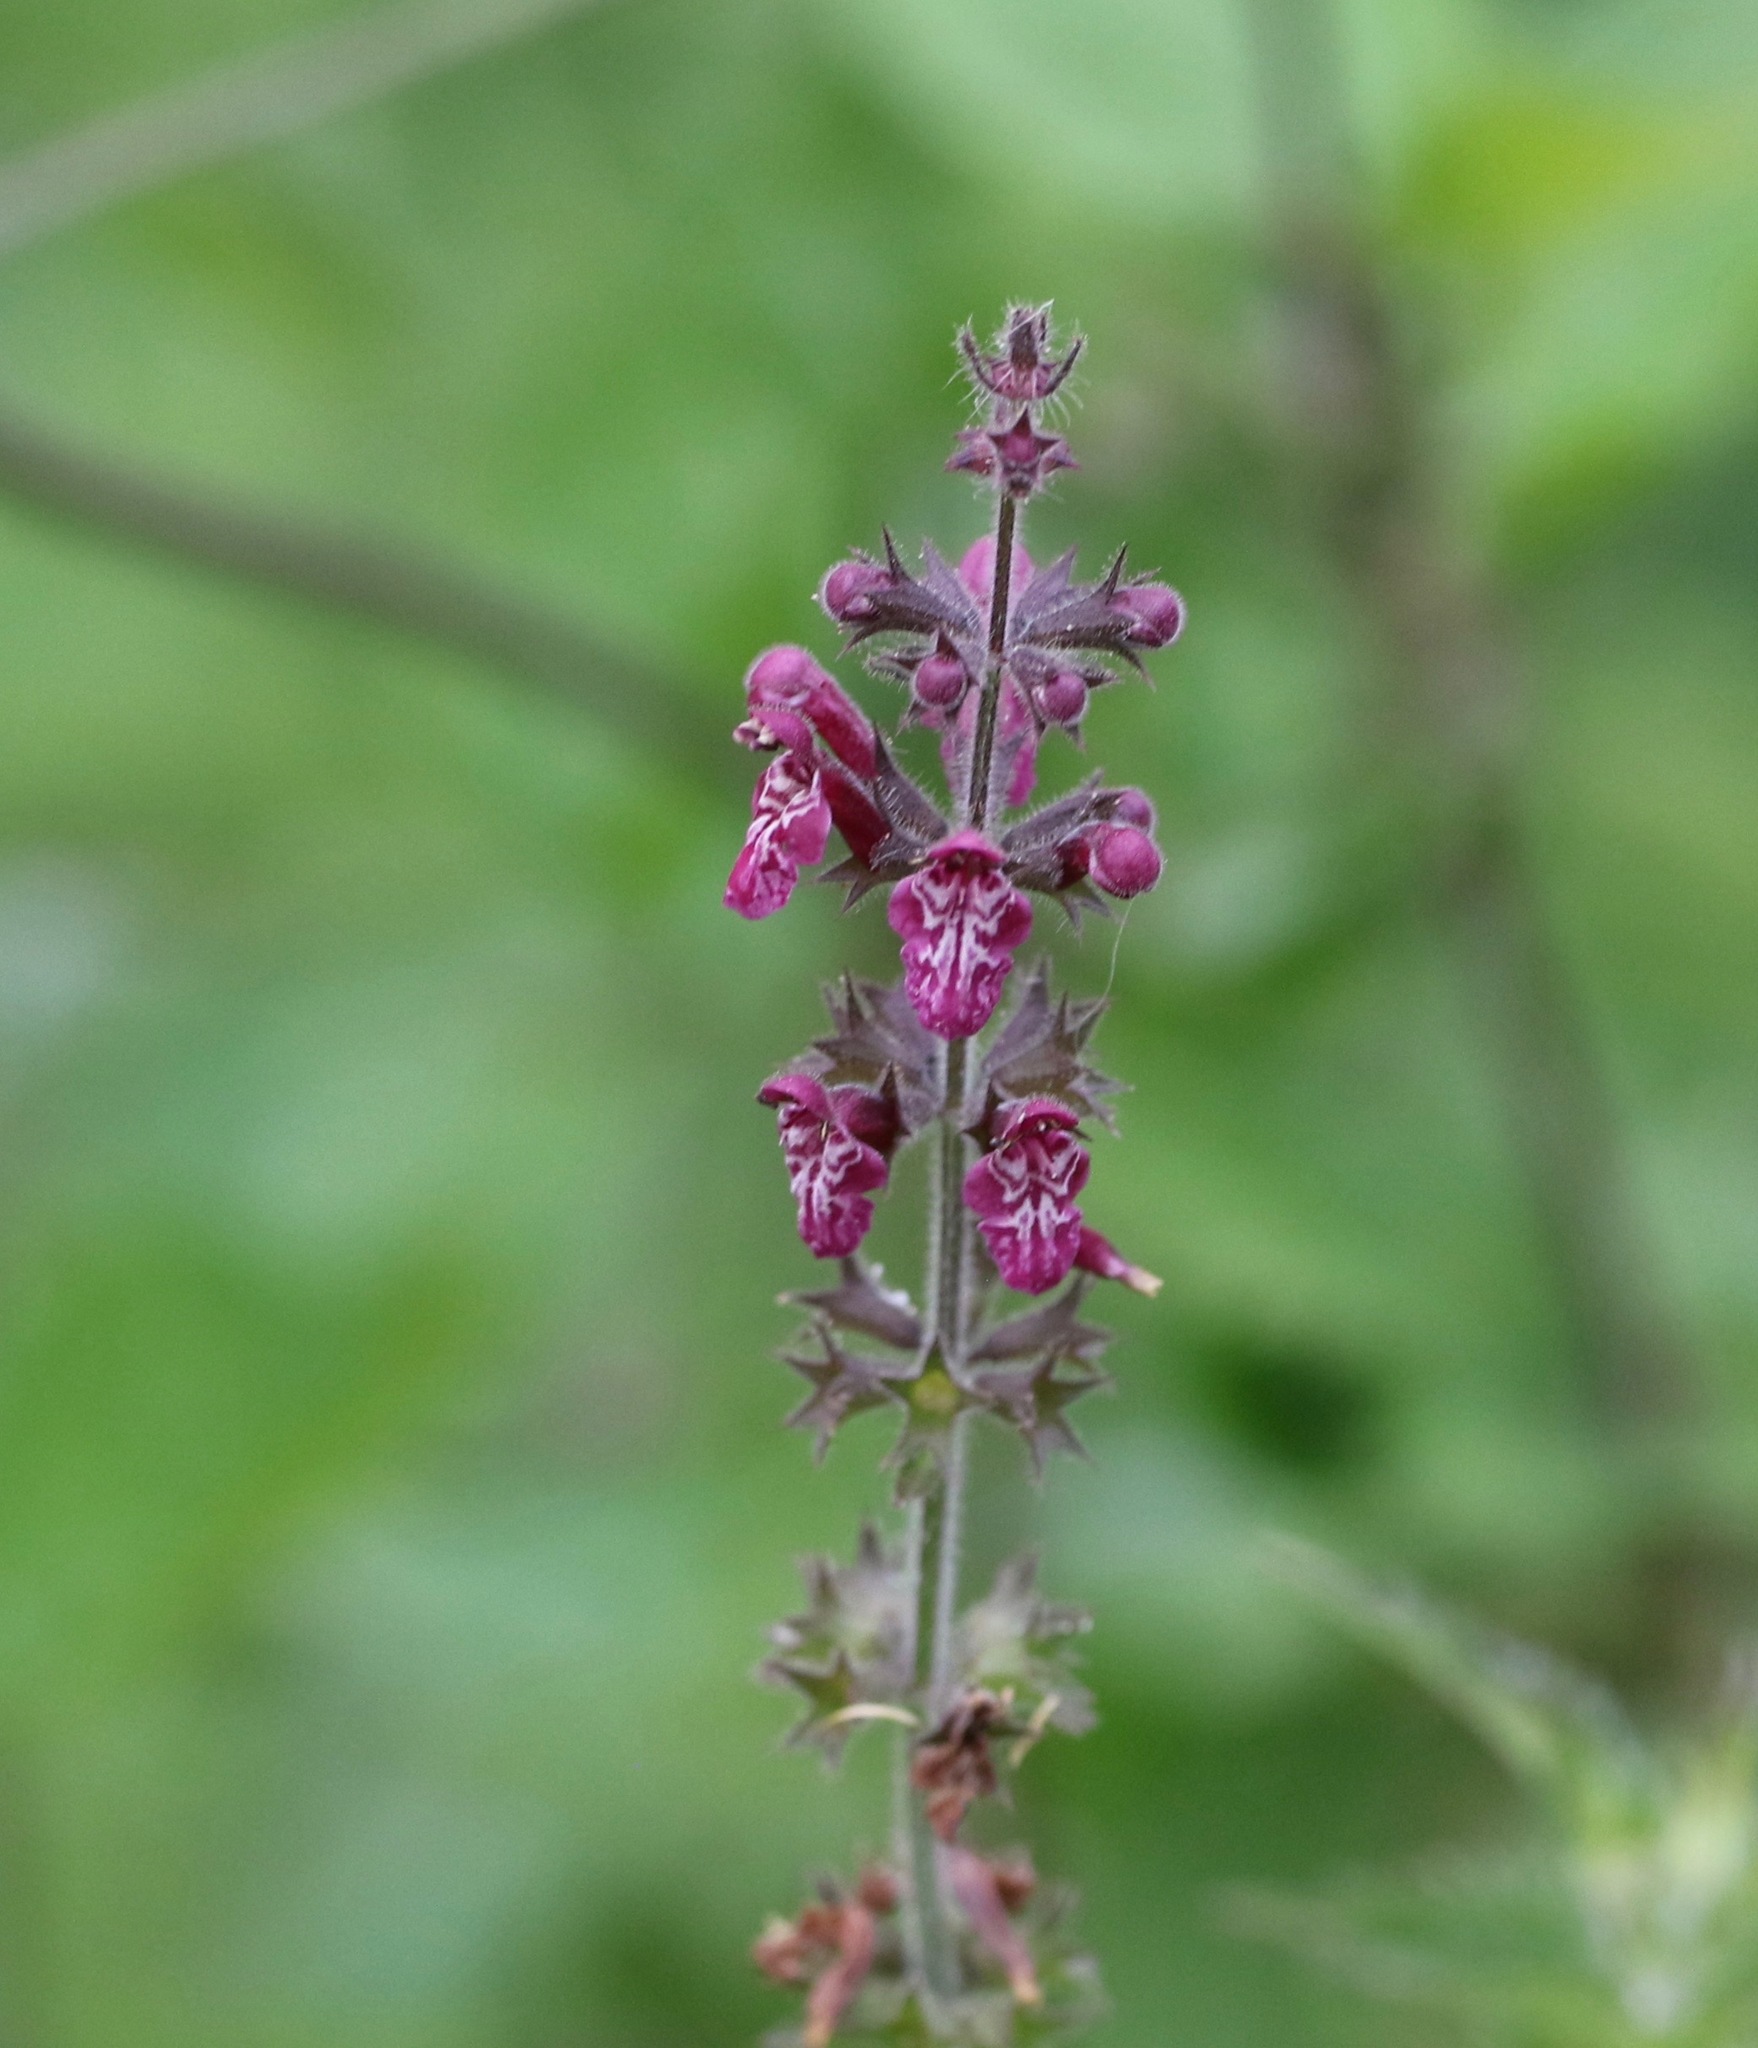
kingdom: Plantae
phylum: Tracheophyta
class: Magnoliopsida
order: Lamiales
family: Lamiaceae
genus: Stachys
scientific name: Stachys sylvatica
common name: Hedge woundwort
